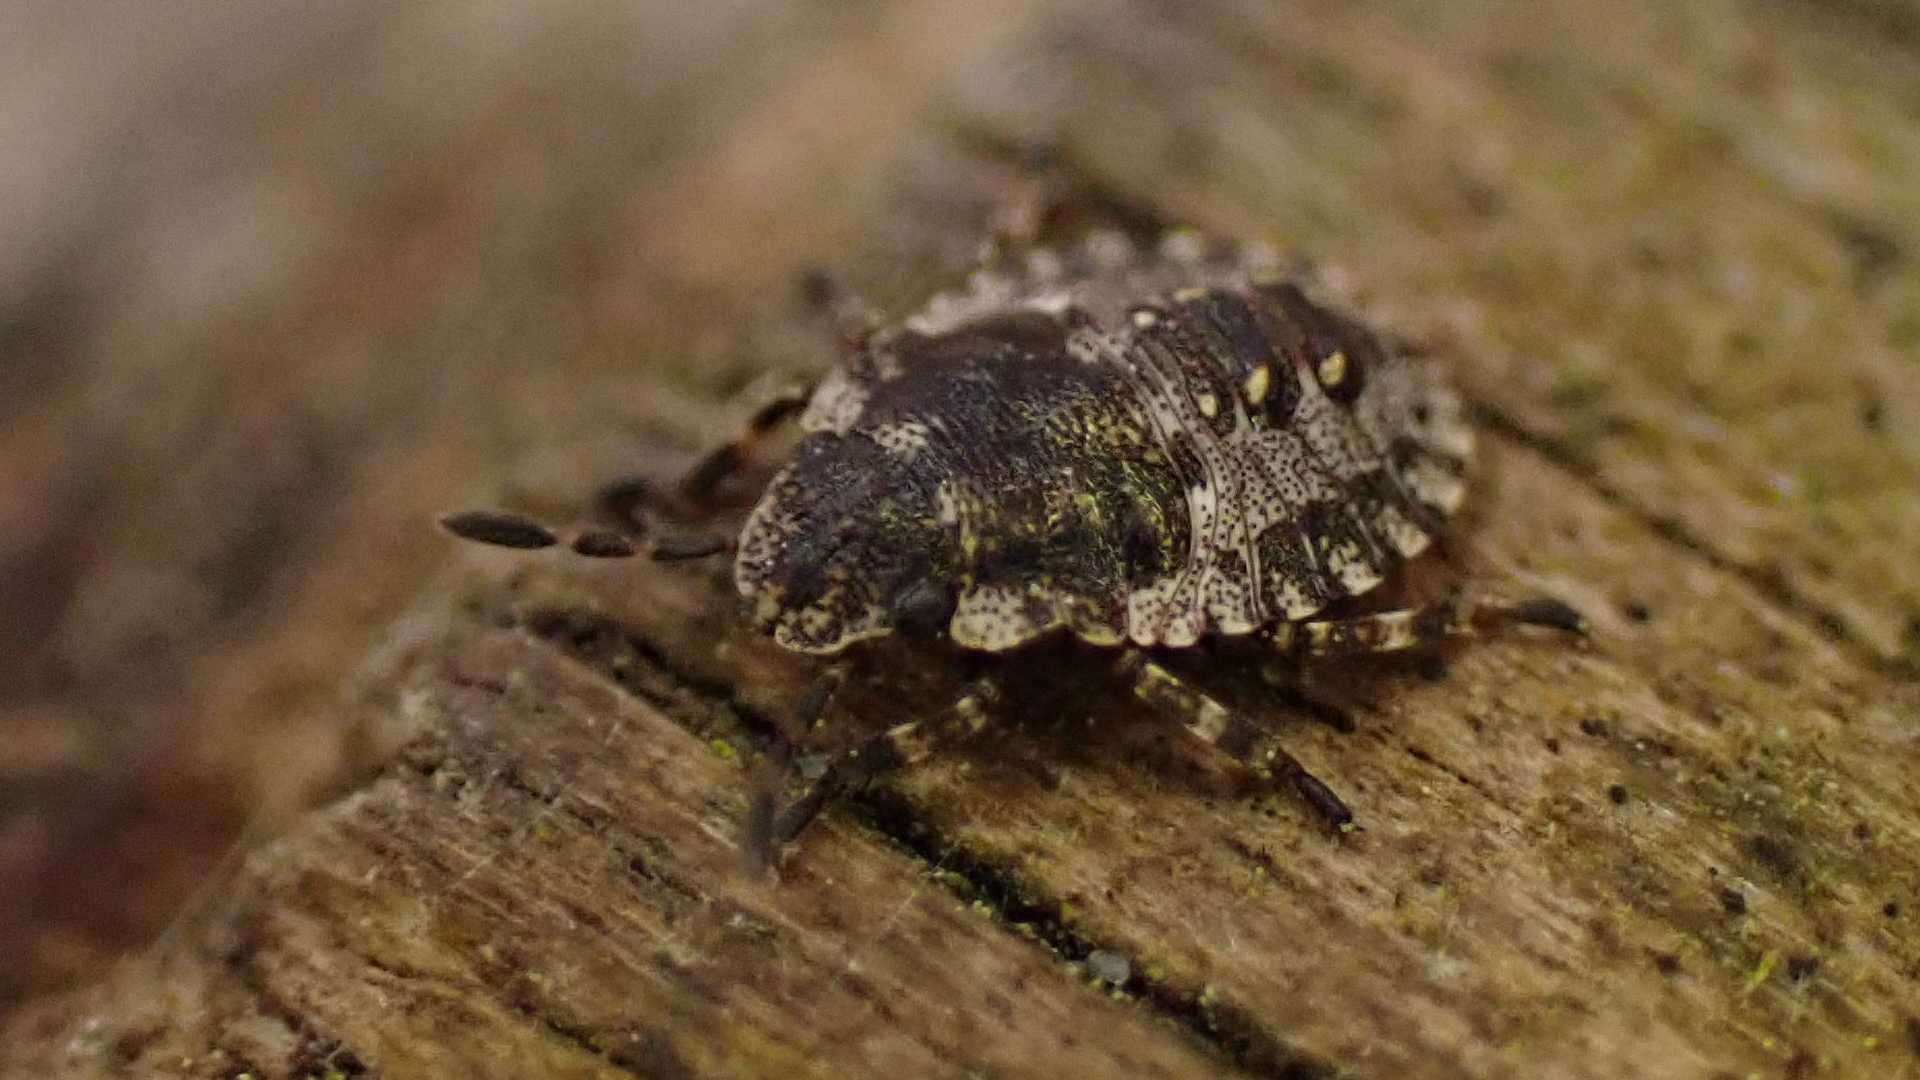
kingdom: Animalia
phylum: Arthropoda
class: Insecta
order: Hemiptera
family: Pentatomidae
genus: Pentatoma
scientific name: Pentatoma rufipes
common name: Forest bug
